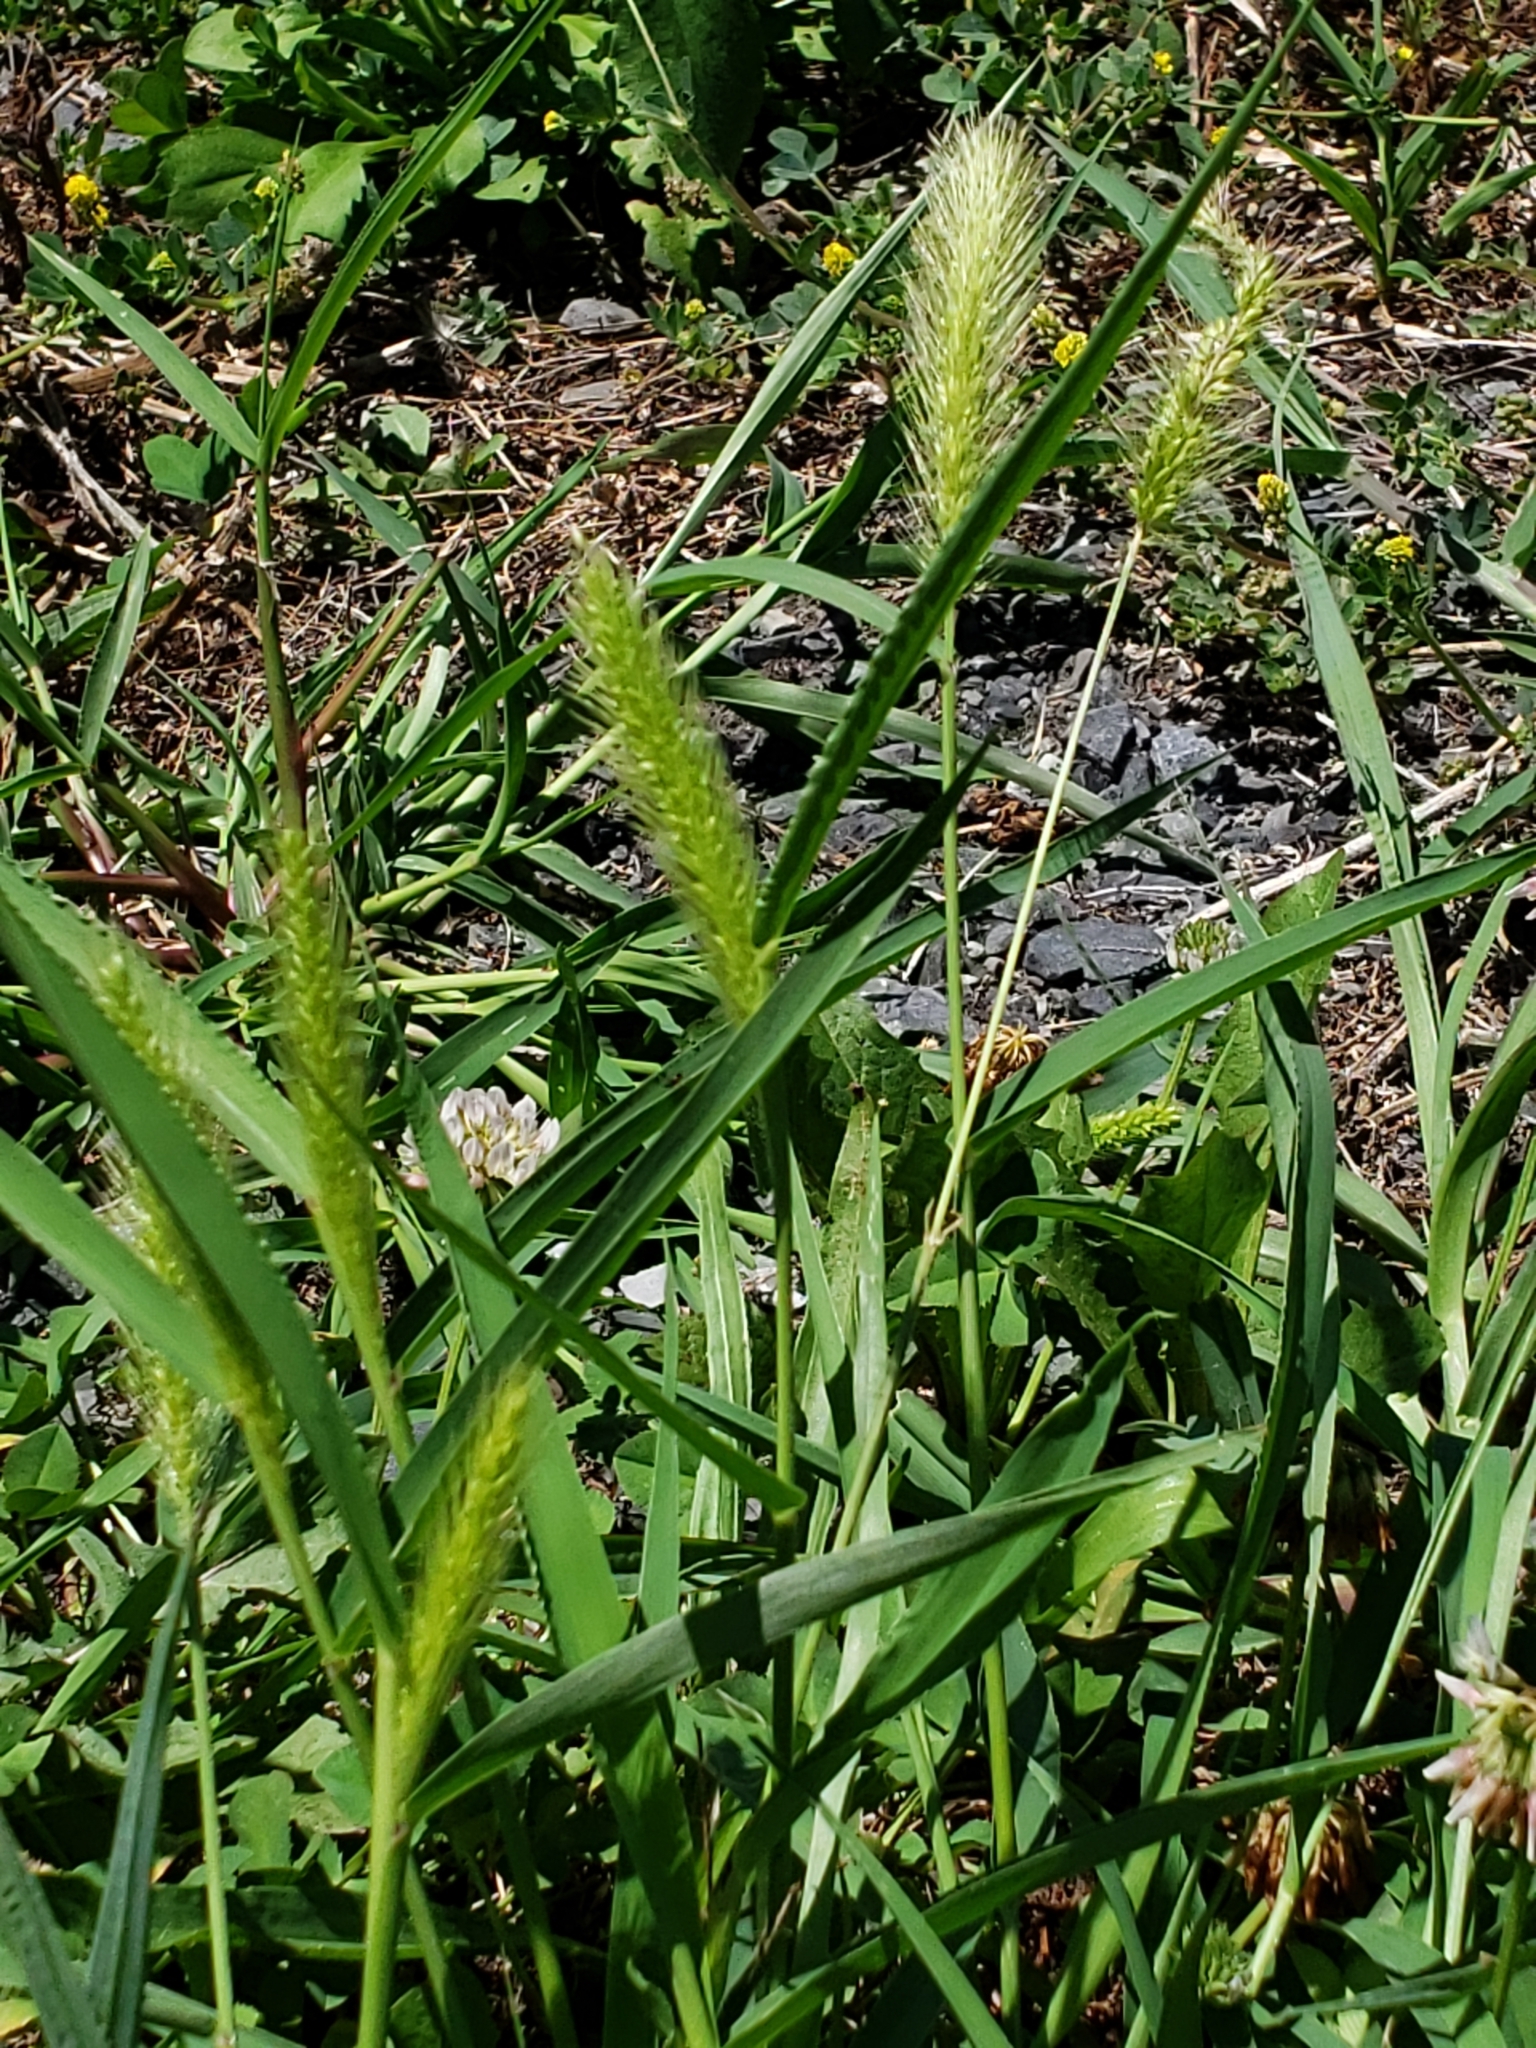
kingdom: Plantae
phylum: Tracheophyta
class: Liliopsida
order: Poales
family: Poaceae
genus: Setaria
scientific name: Setaria viridis
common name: Green bristlegrass
